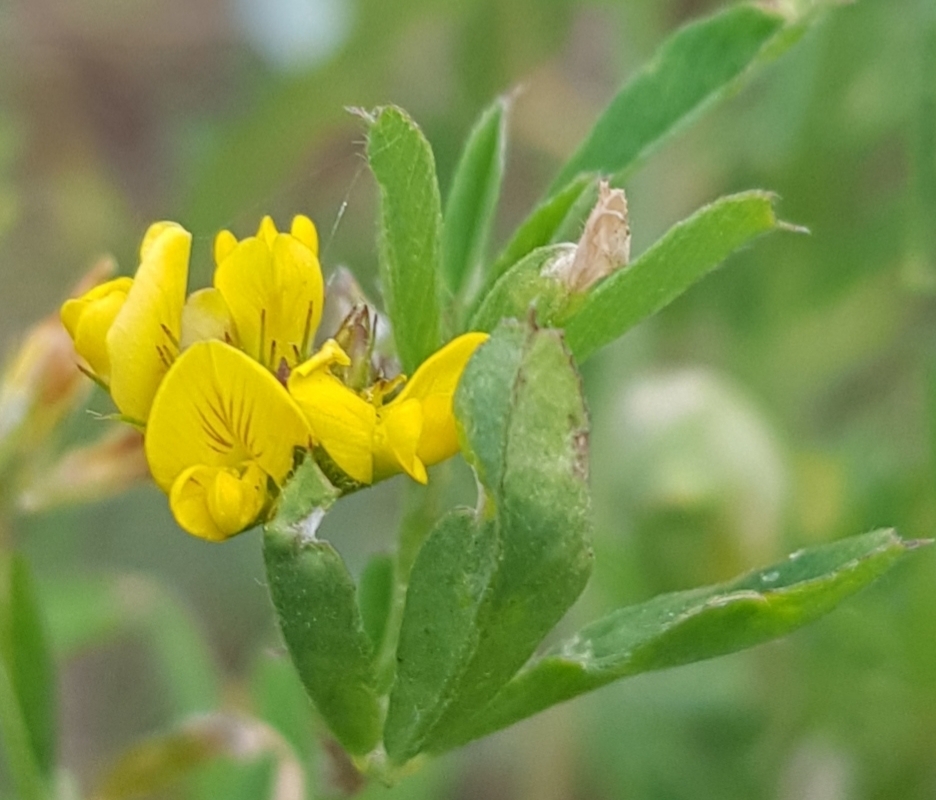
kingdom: Plantae
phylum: Tracheophyta
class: Magnoliopsida
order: Fabales
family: Fabaceae
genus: Medicago
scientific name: Medicago falcata
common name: Sickle medick
